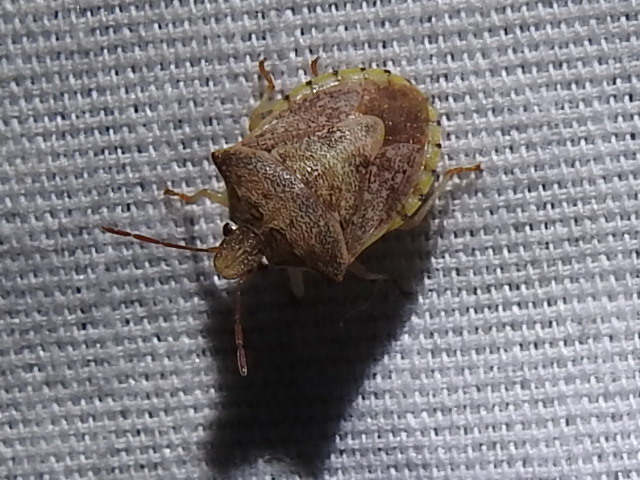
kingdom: Animalia
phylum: Arthropoda
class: Insecta
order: Hemiptera
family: Pentatomidae
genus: Dendrocoris
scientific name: Dendrocoris humeralis
